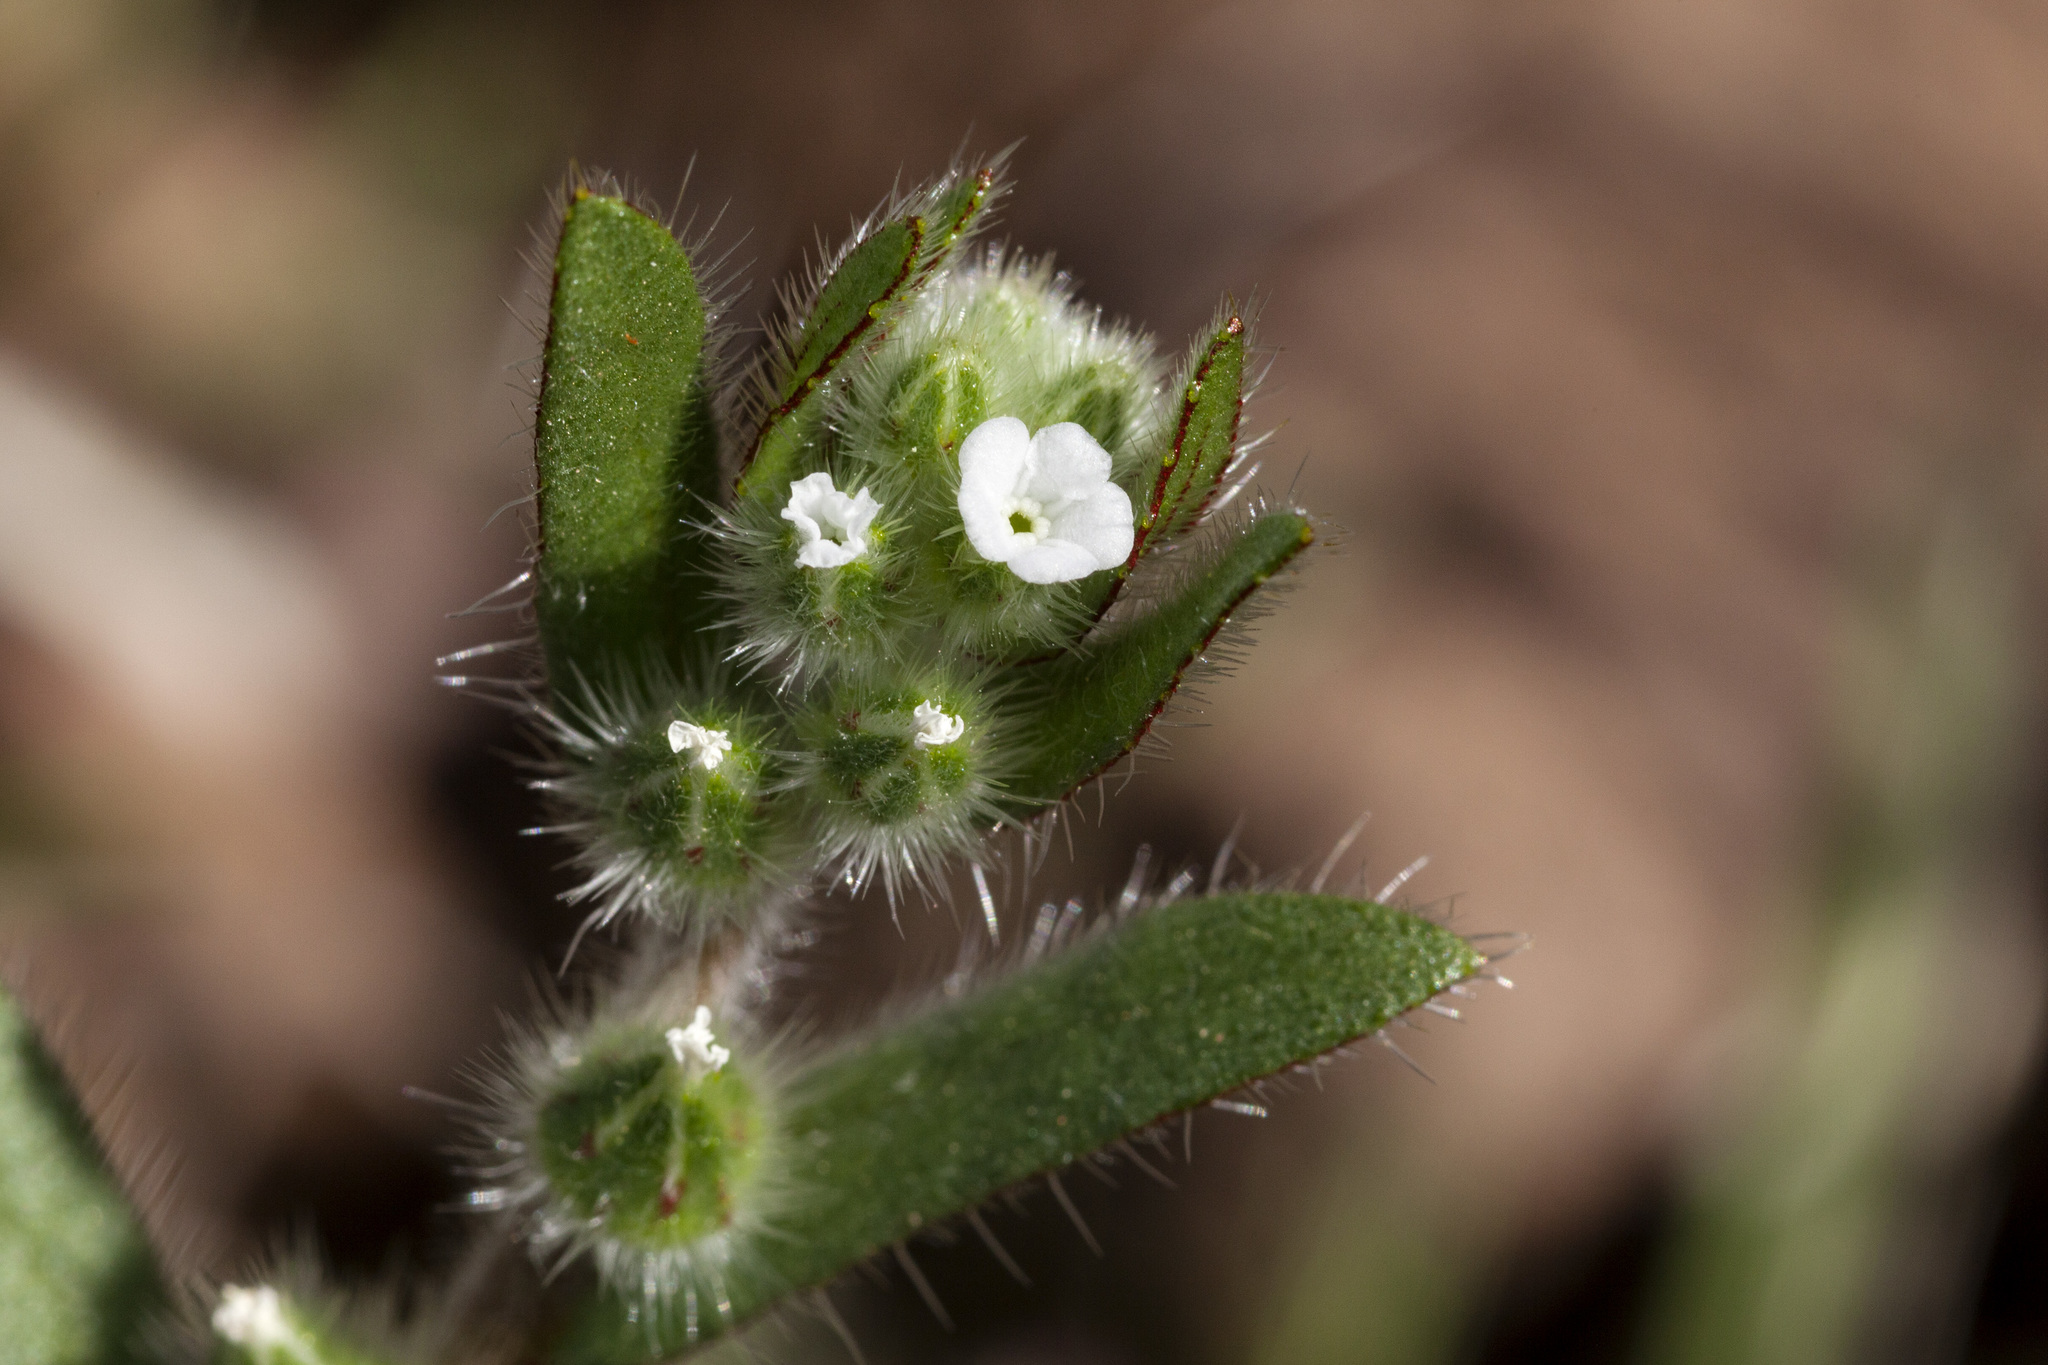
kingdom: Plantae
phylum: Tracheophyta
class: Magnoliopsida
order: Boraginales
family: Boraginaceae
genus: Plagiobothrys
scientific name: Plagiobothrys arizonicus
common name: Arizona popcorn-flower
